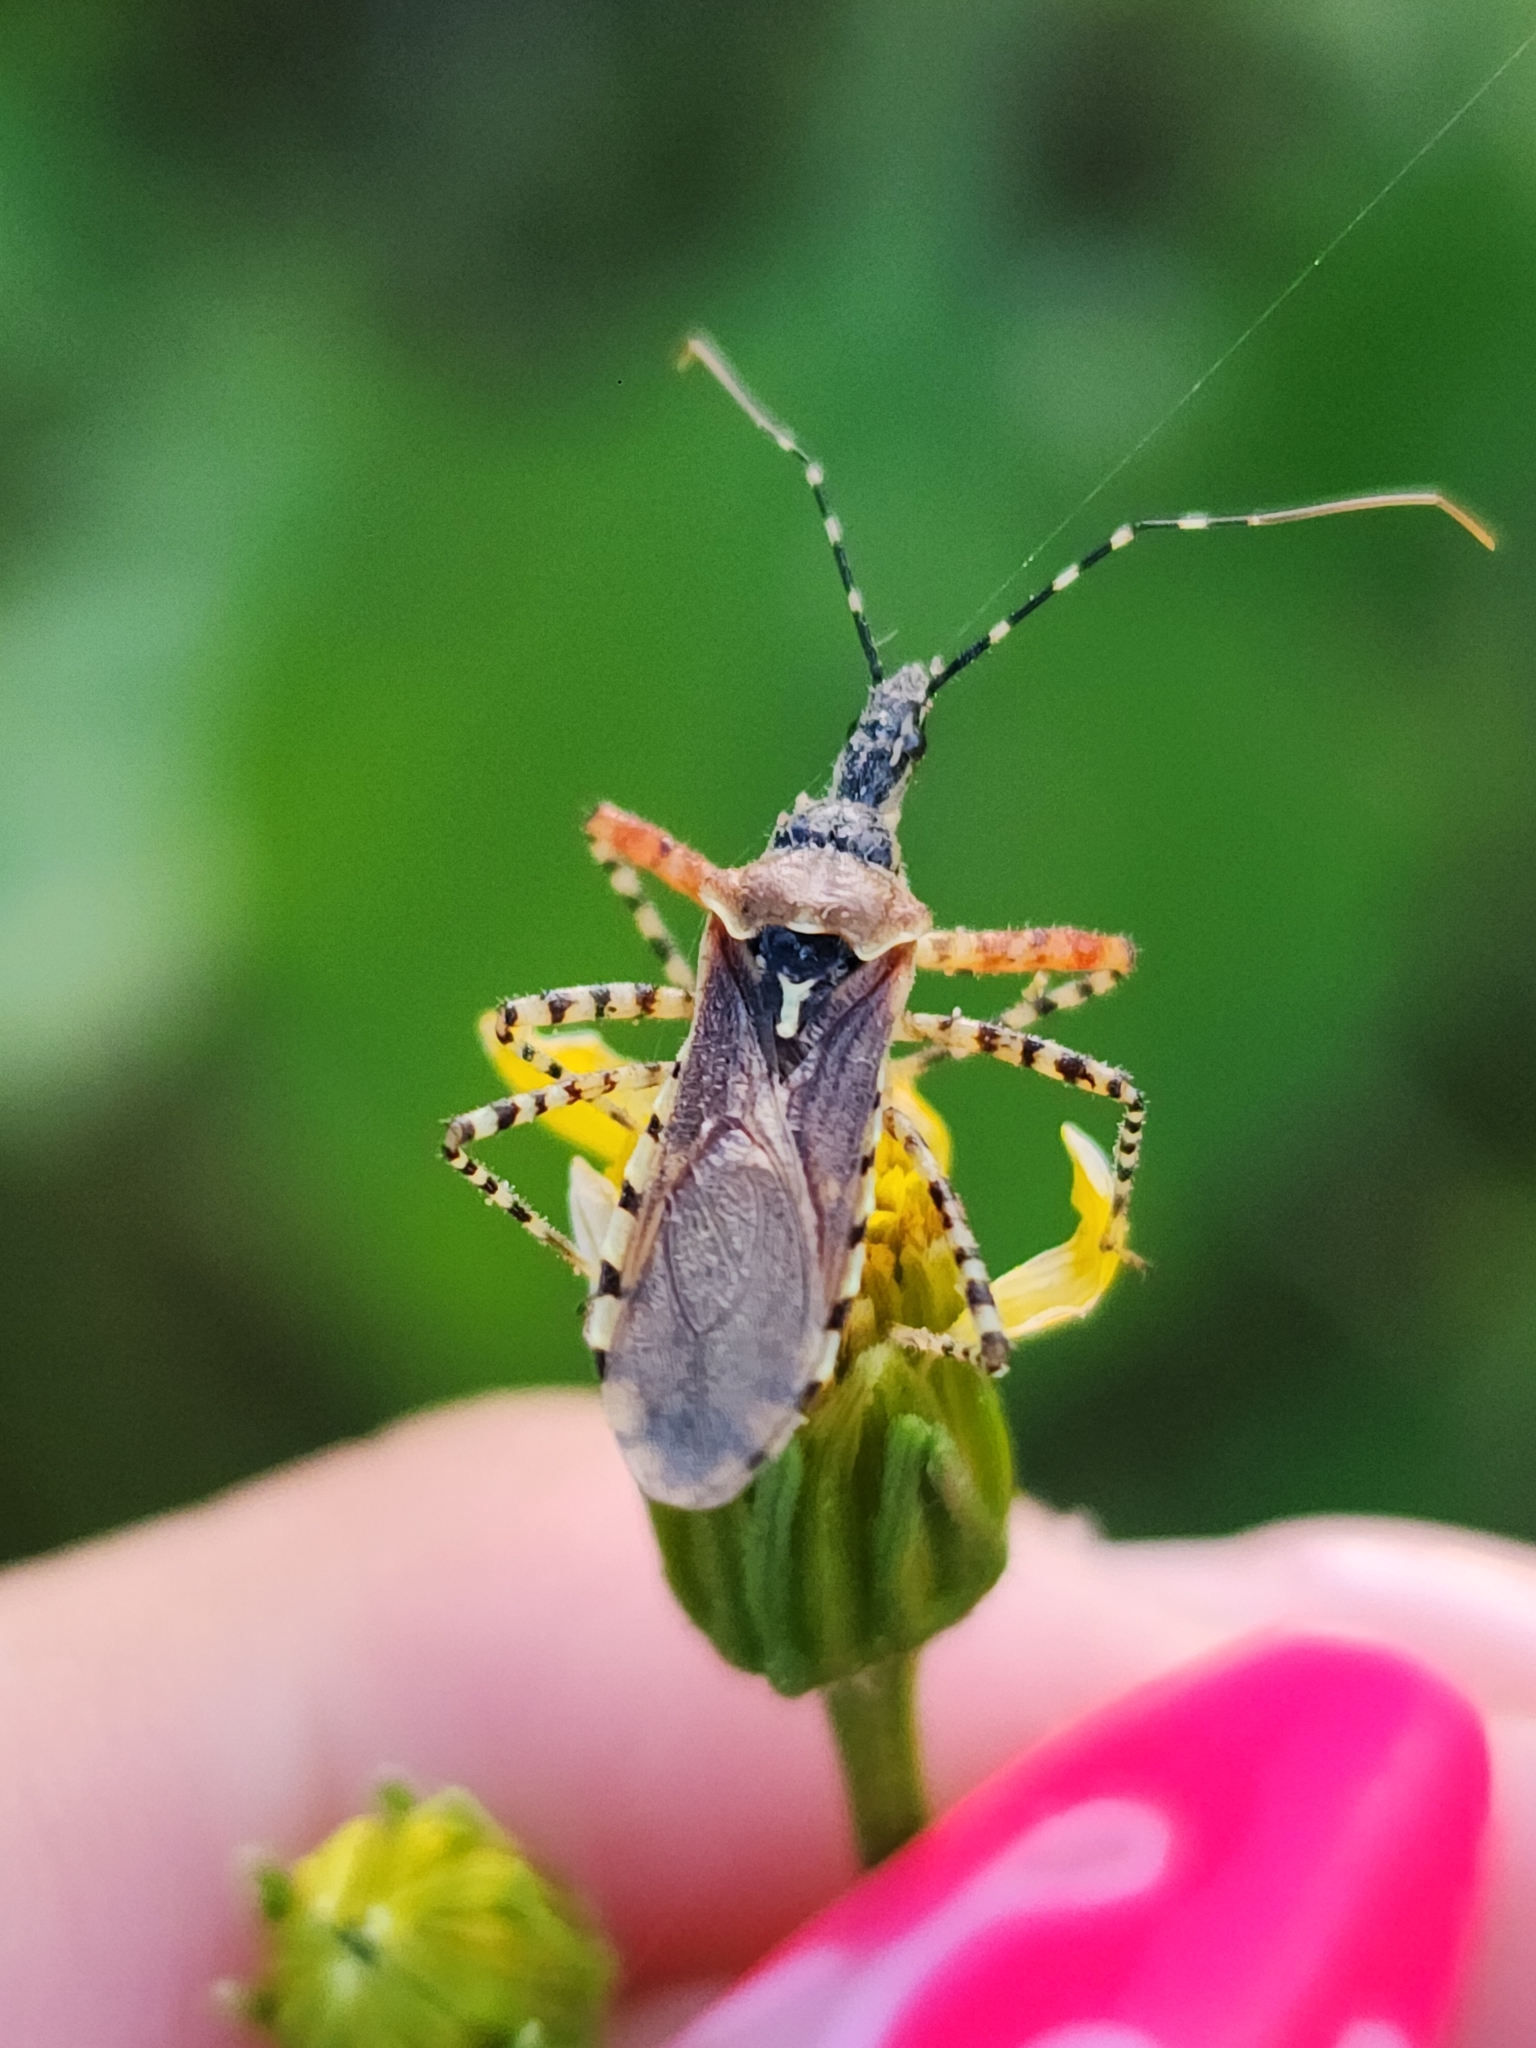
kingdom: Animalia
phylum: Arthropoda
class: Insecta
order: Hemiptera
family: Reduviidae
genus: Cosmoclopius
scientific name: Cosmoclopius nigroannulatus
